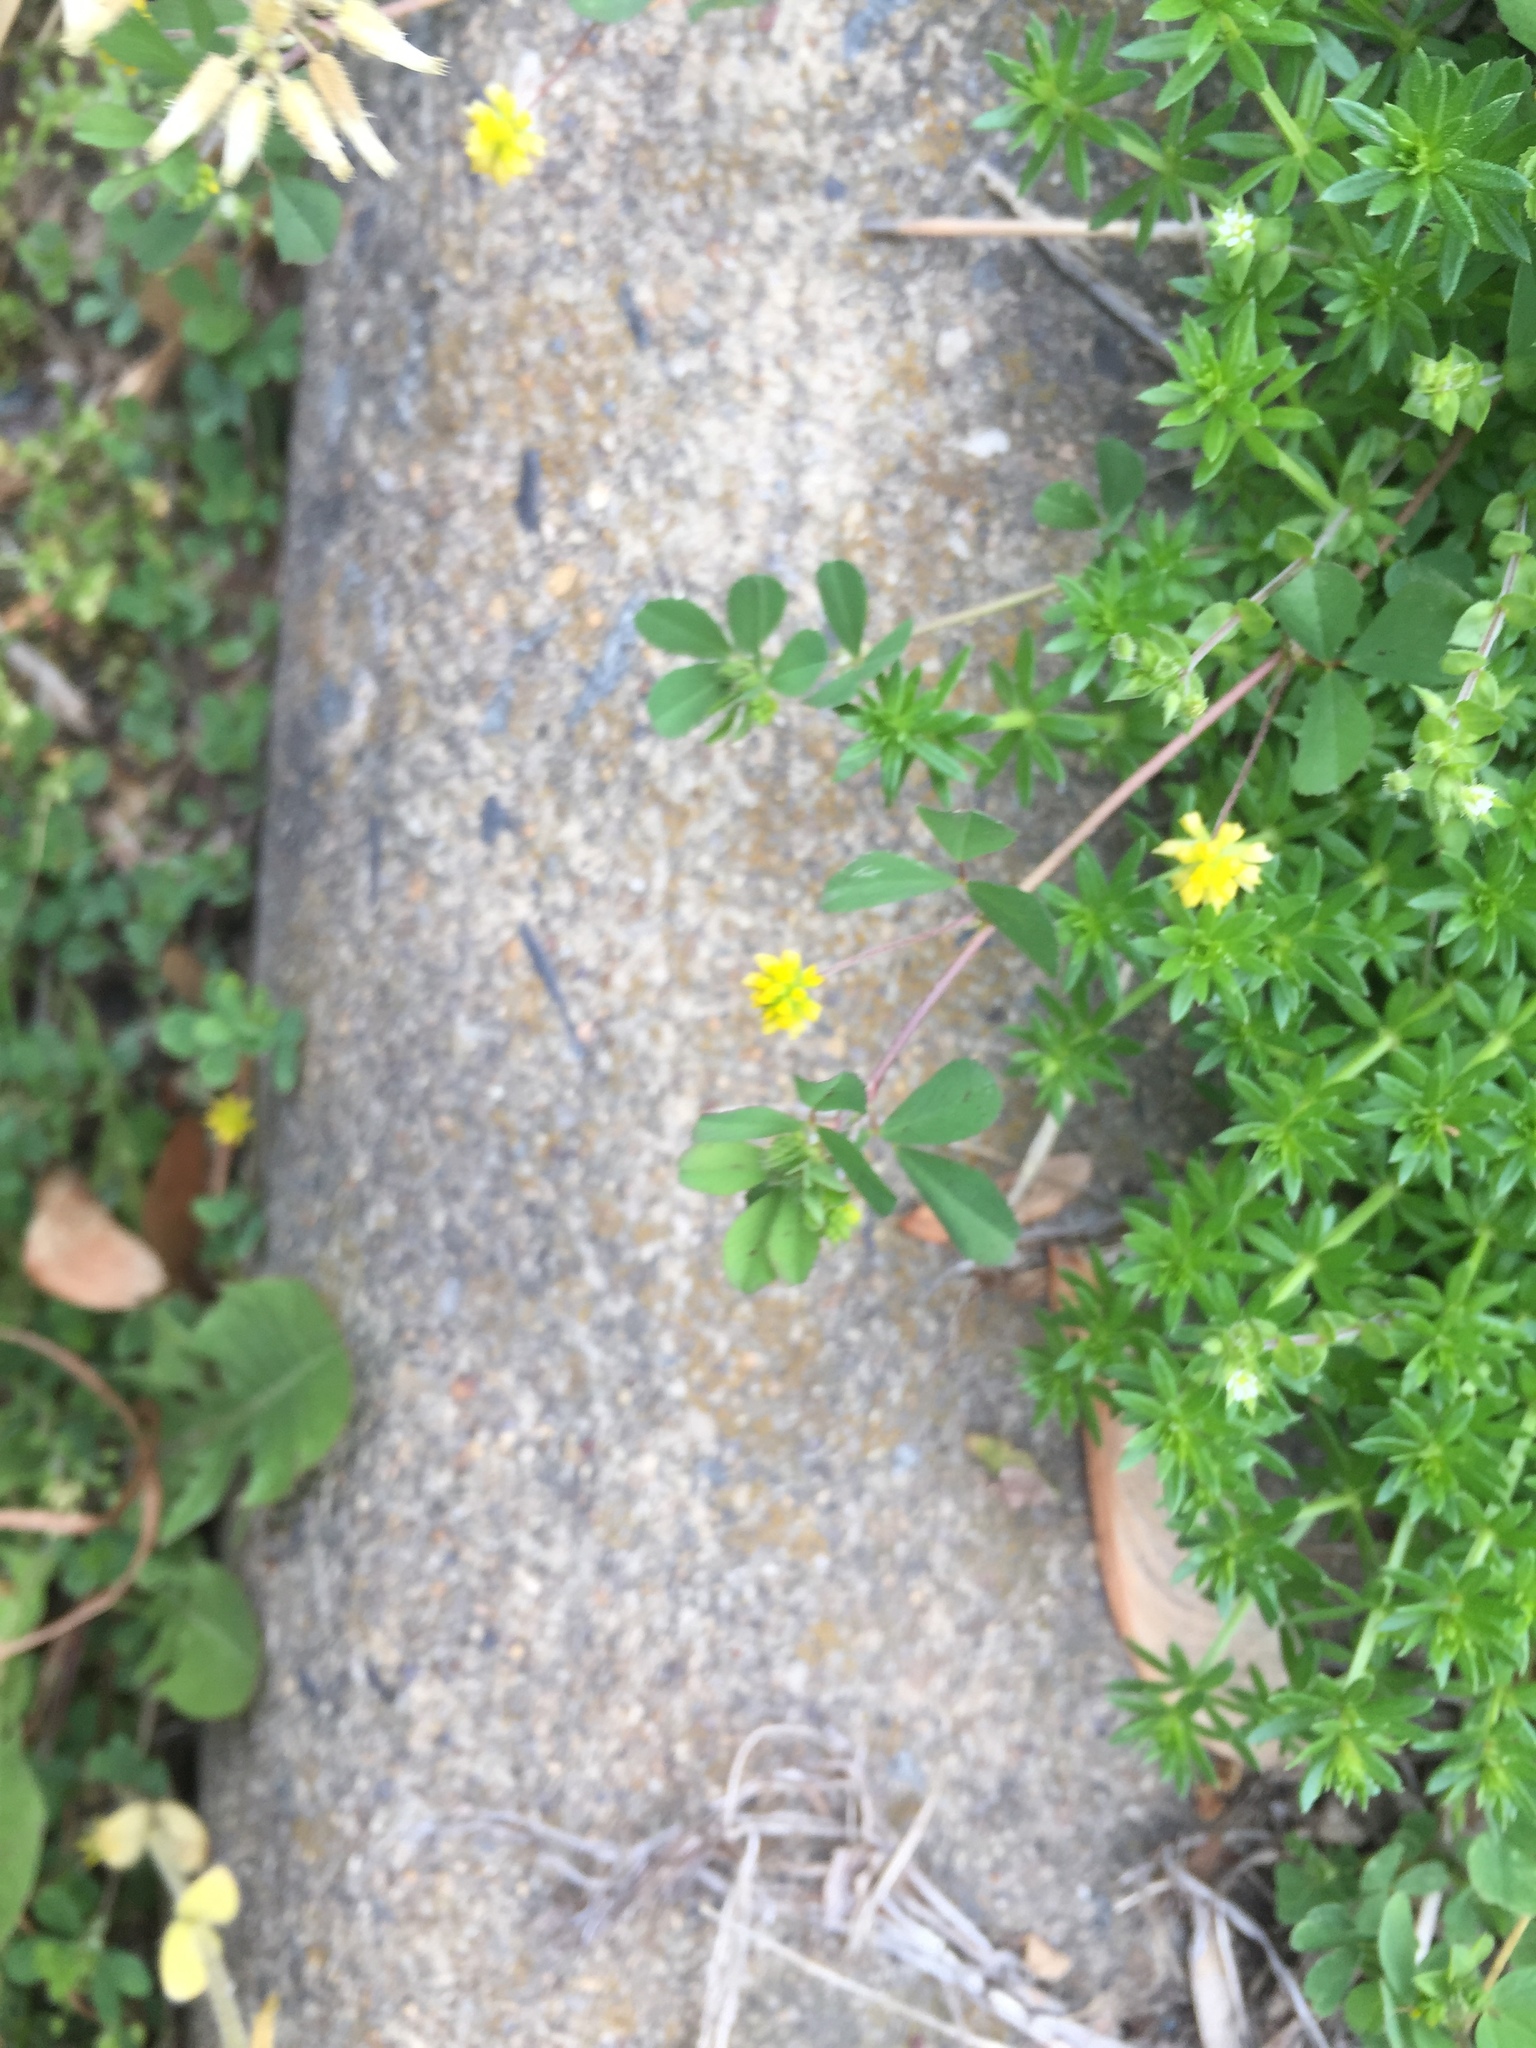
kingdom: Plantae
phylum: Tracheophyta
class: Magnoliopsida
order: Fabales
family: Fabaceae
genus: Trifolium
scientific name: Trifolium dubium
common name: Suckling clover
